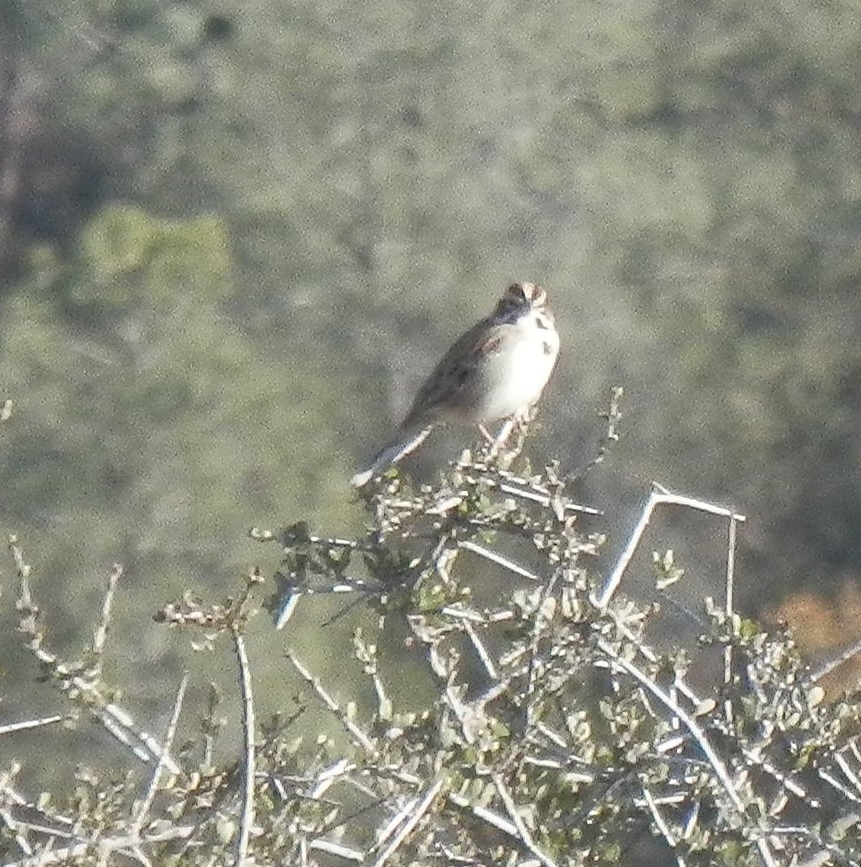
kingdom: Animalia
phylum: Chordata
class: Aves
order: Passeriformes
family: Passerellidae
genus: Chondestes
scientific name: Chondestes grammacus
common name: Lark sparrow
